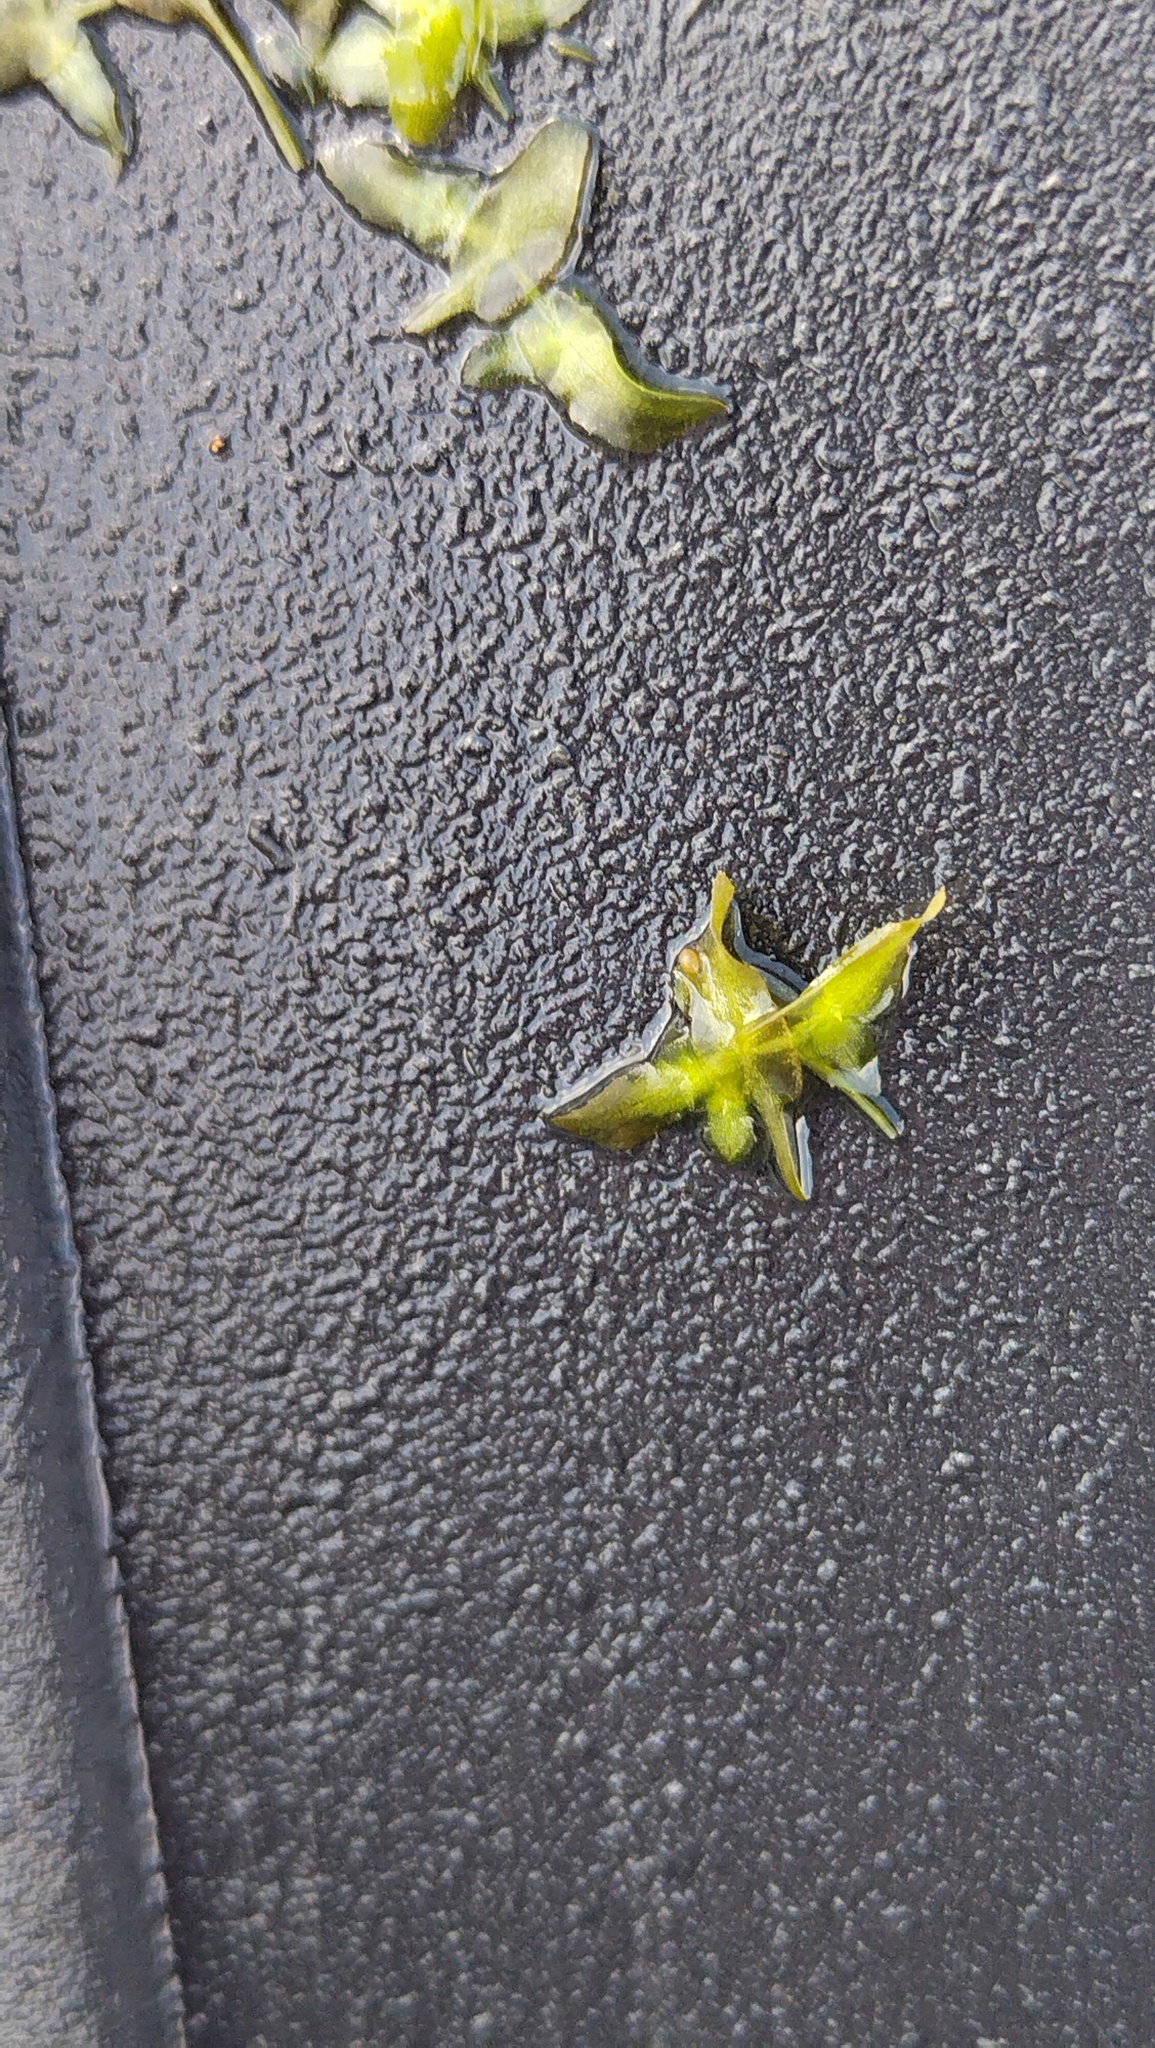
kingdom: Plantae
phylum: Tracheophyta
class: Liliopsida
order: Alismatales
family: Araceae
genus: Lemna
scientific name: Lemna trisulca
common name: Ivy-leaved duckweed
